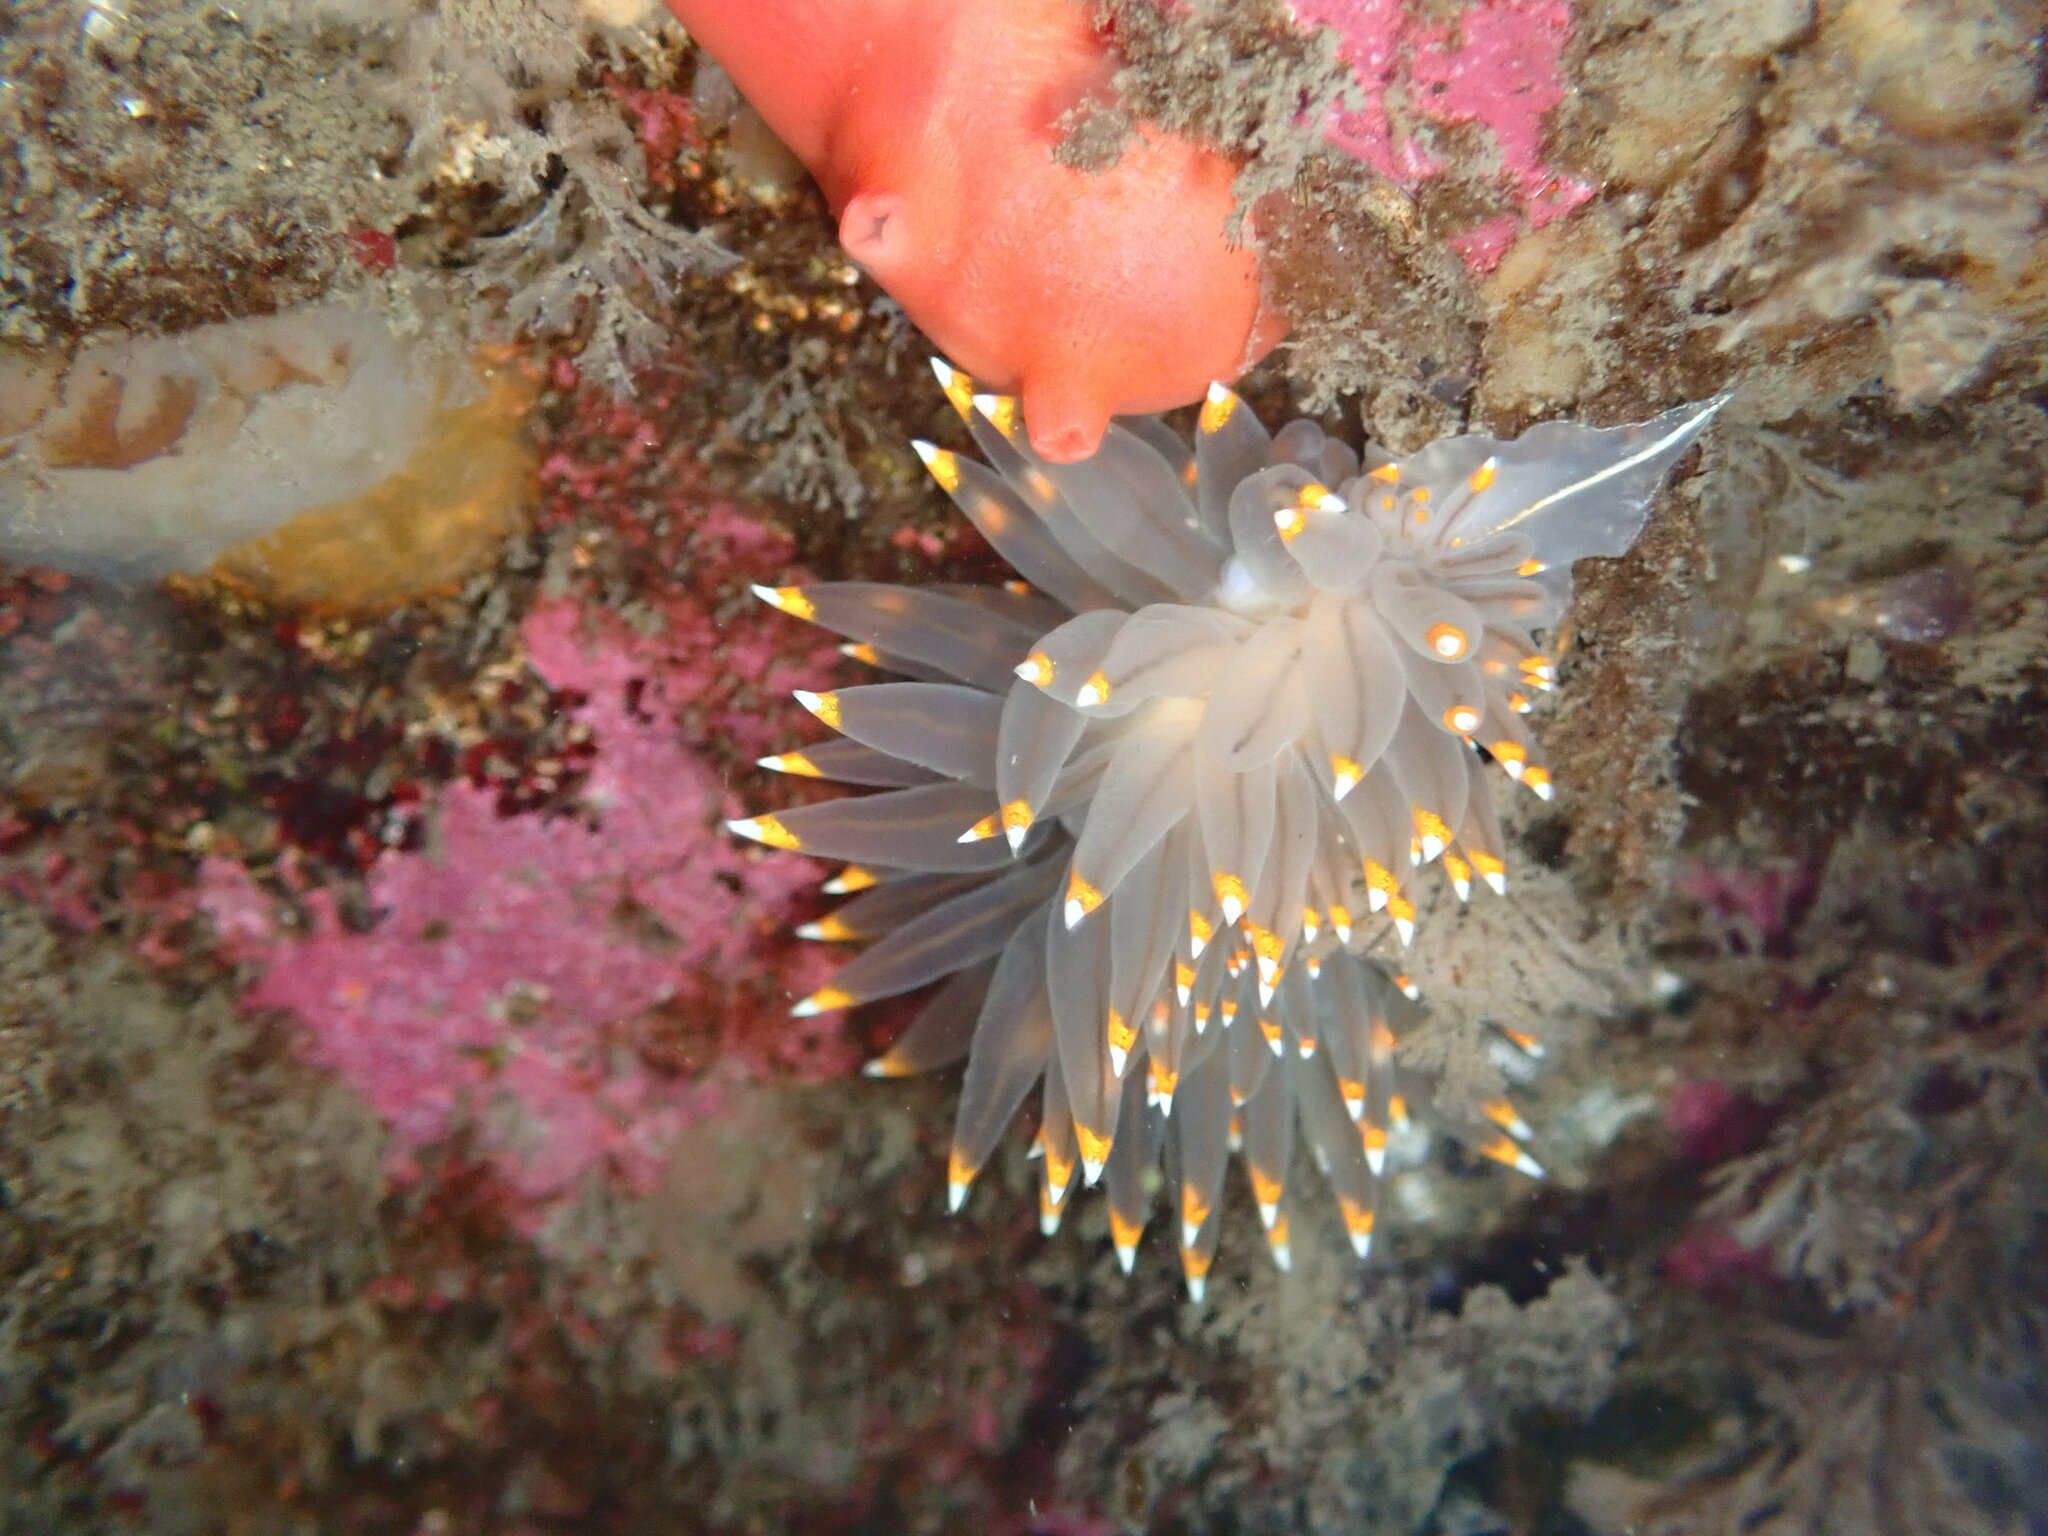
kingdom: Animalia
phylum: Mollusca
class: Gastropoda
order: Nudibranchia
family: Janolidae
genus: Antiopella
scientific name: Antiopella fusca
